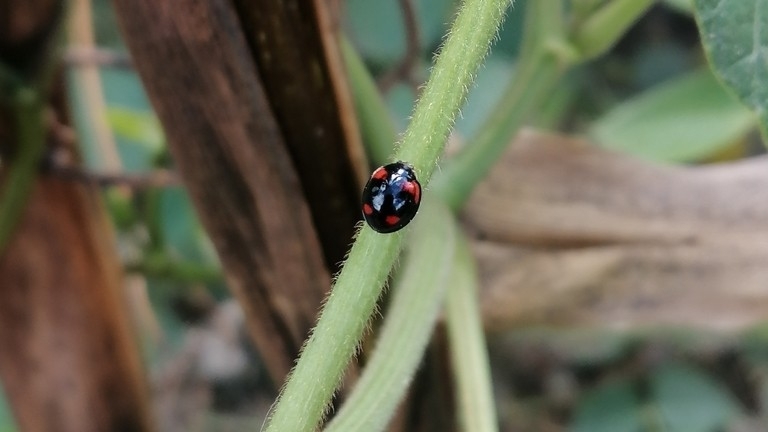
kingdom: Animalia
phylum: Arthropoda
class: Insecta
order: Coleoptera
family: Coccinellidae
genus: Cheilomenes
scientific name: Cheilomenes sexmaculata
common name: Ladybird beetle
